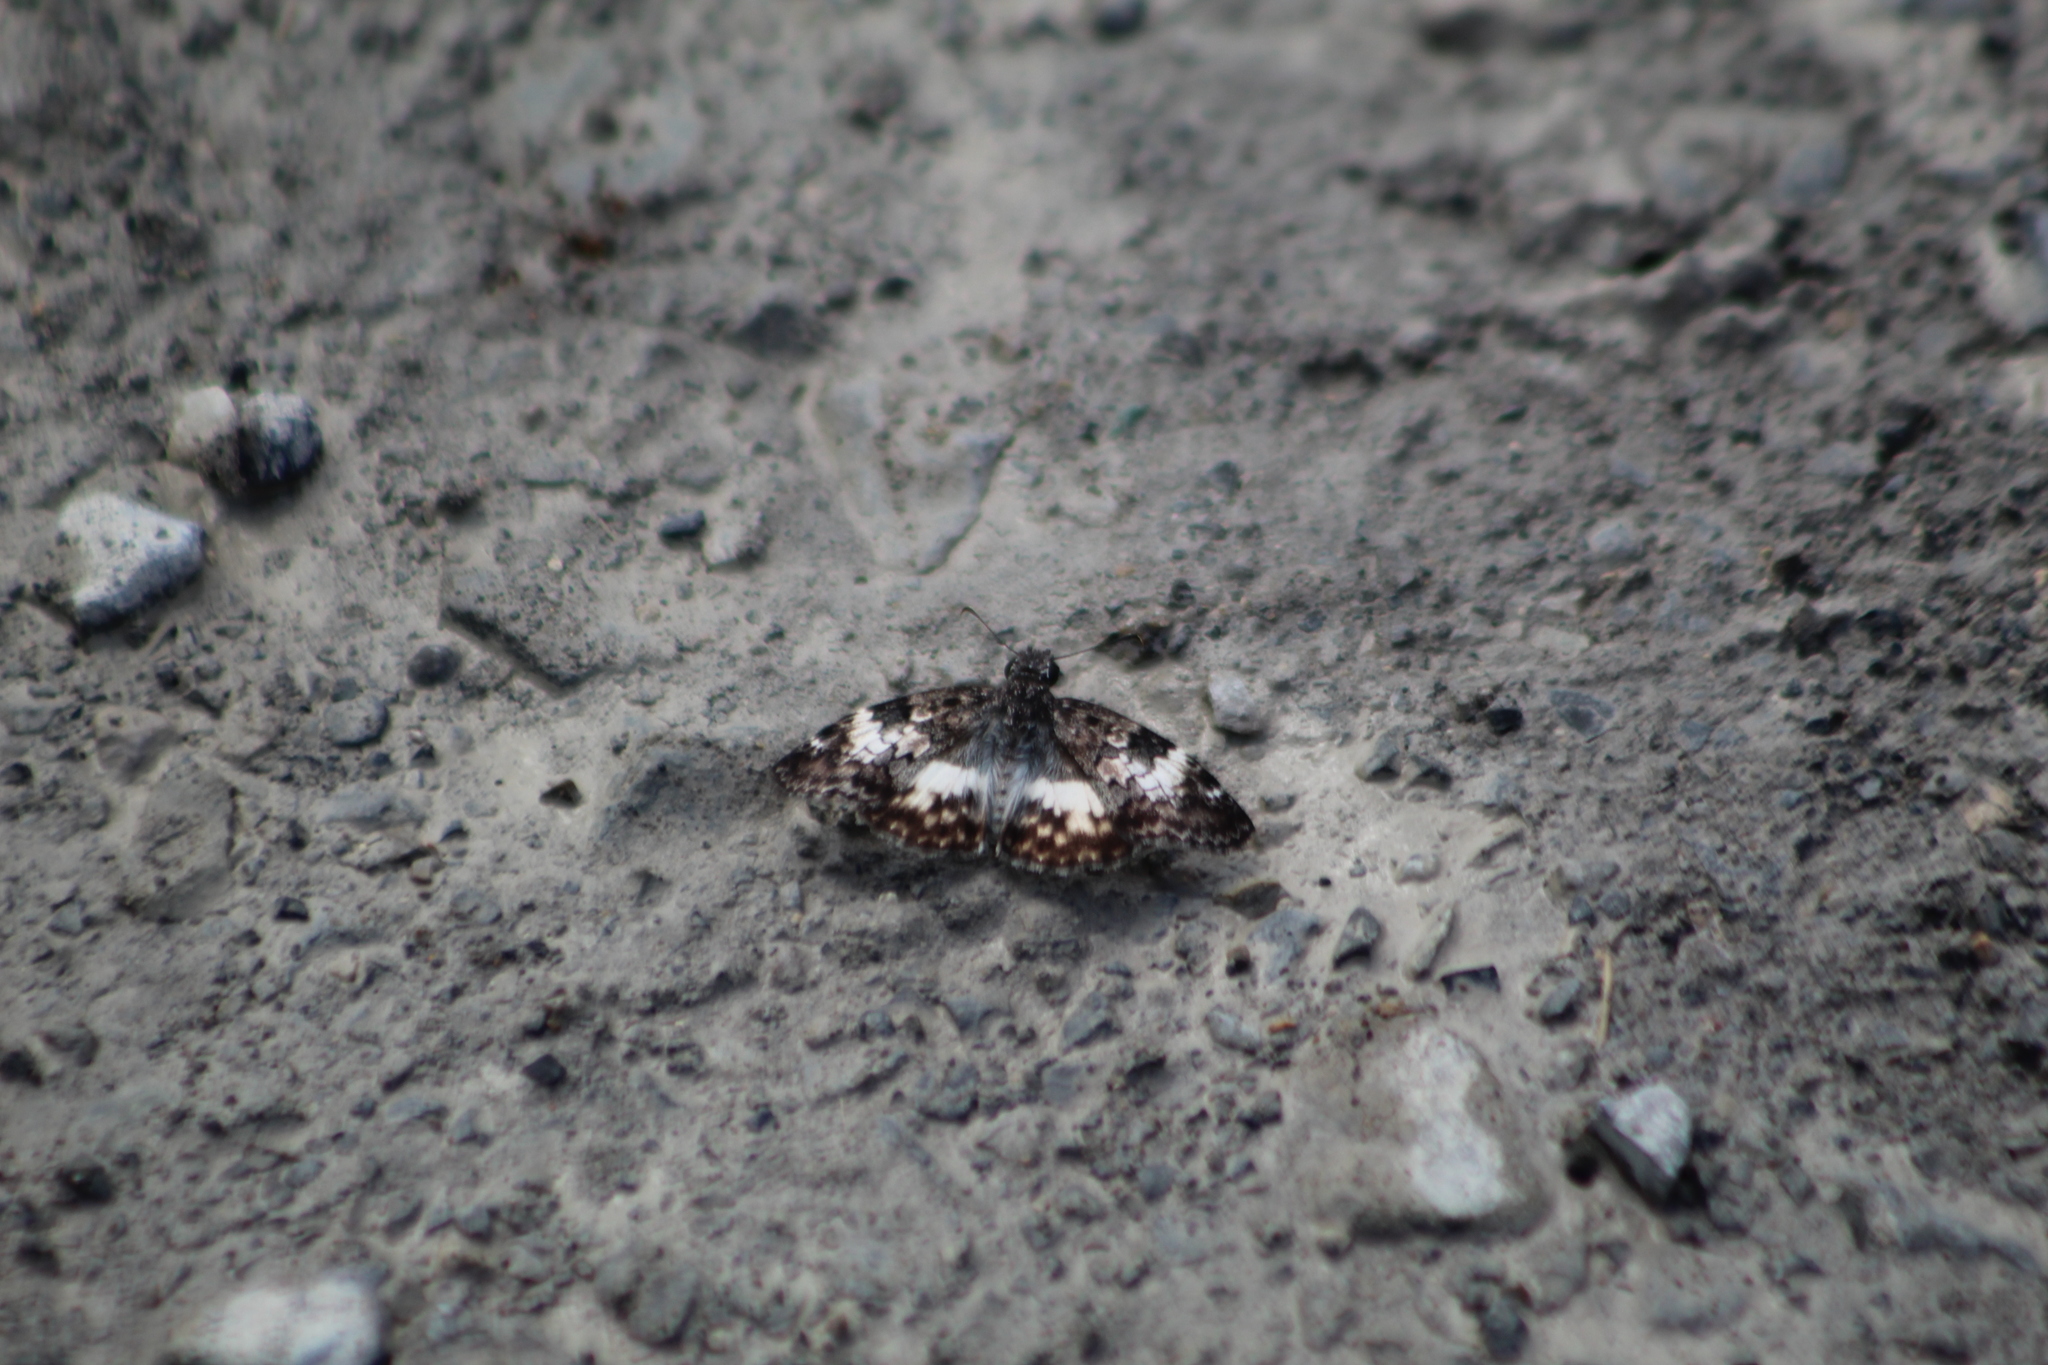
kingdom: Animalia
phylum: Arthropoda
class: Insecta
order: Lepidoptera
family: Hesperiidae
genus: Chiothion
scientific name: Chiothion georgina
